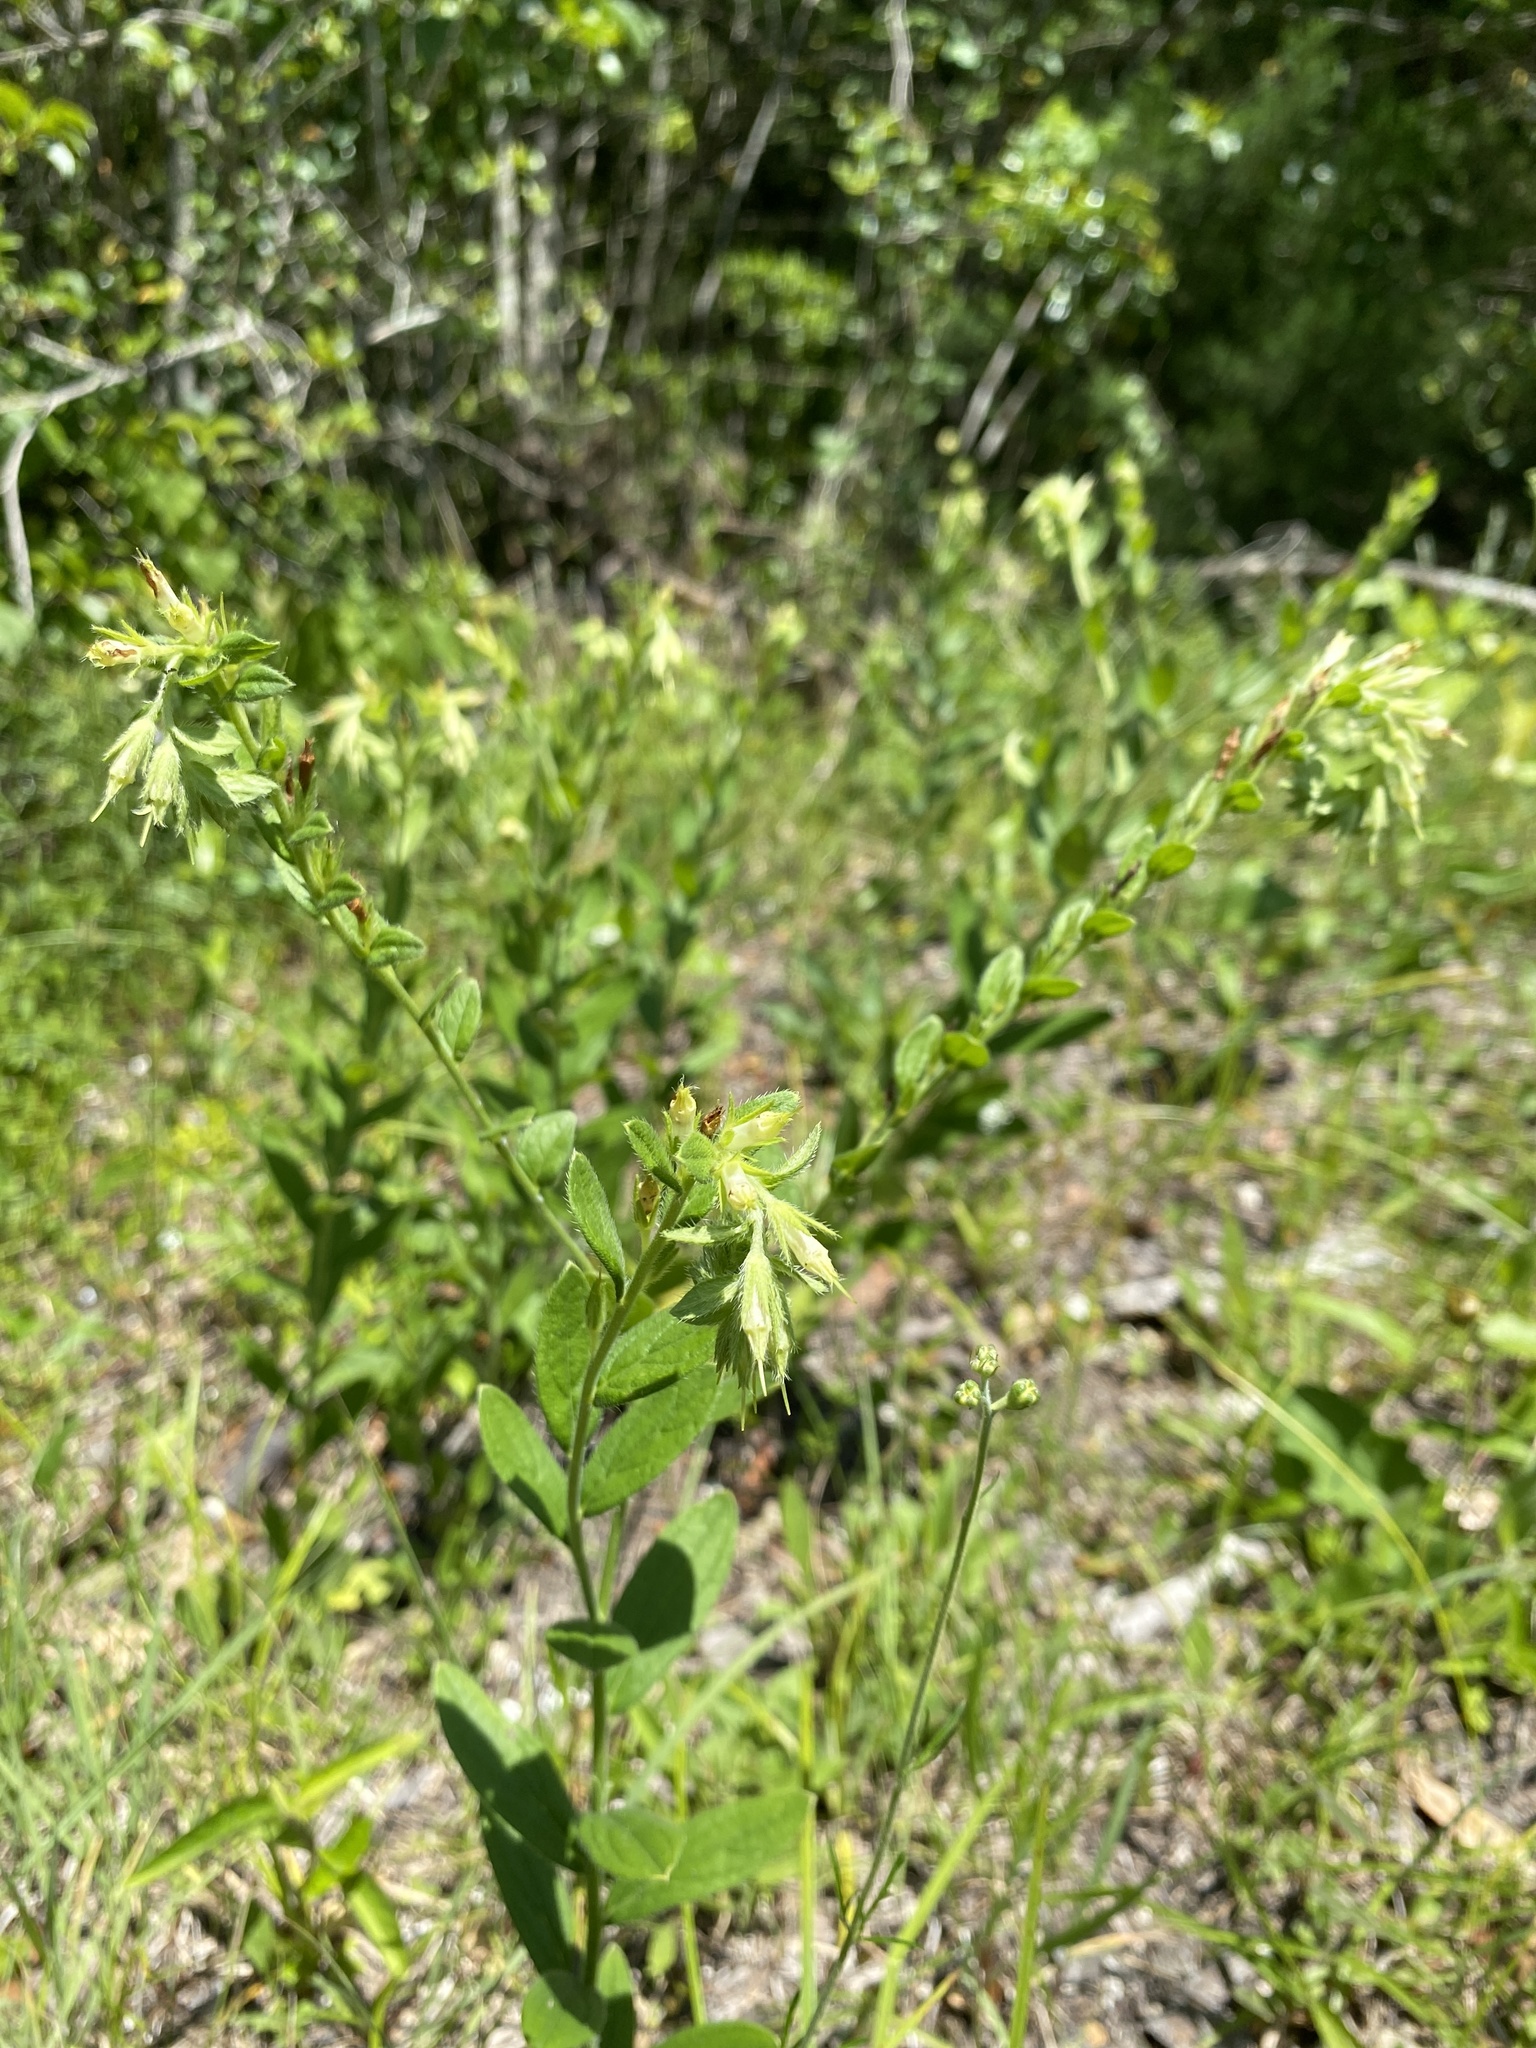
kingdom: Plantae
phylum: Tracheophyta
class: Magnoliopsida
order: Boraginales
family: Boraginaceae
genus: Lithospermum
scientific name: Lithospermum virginianum
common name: Eastern false gromwell
